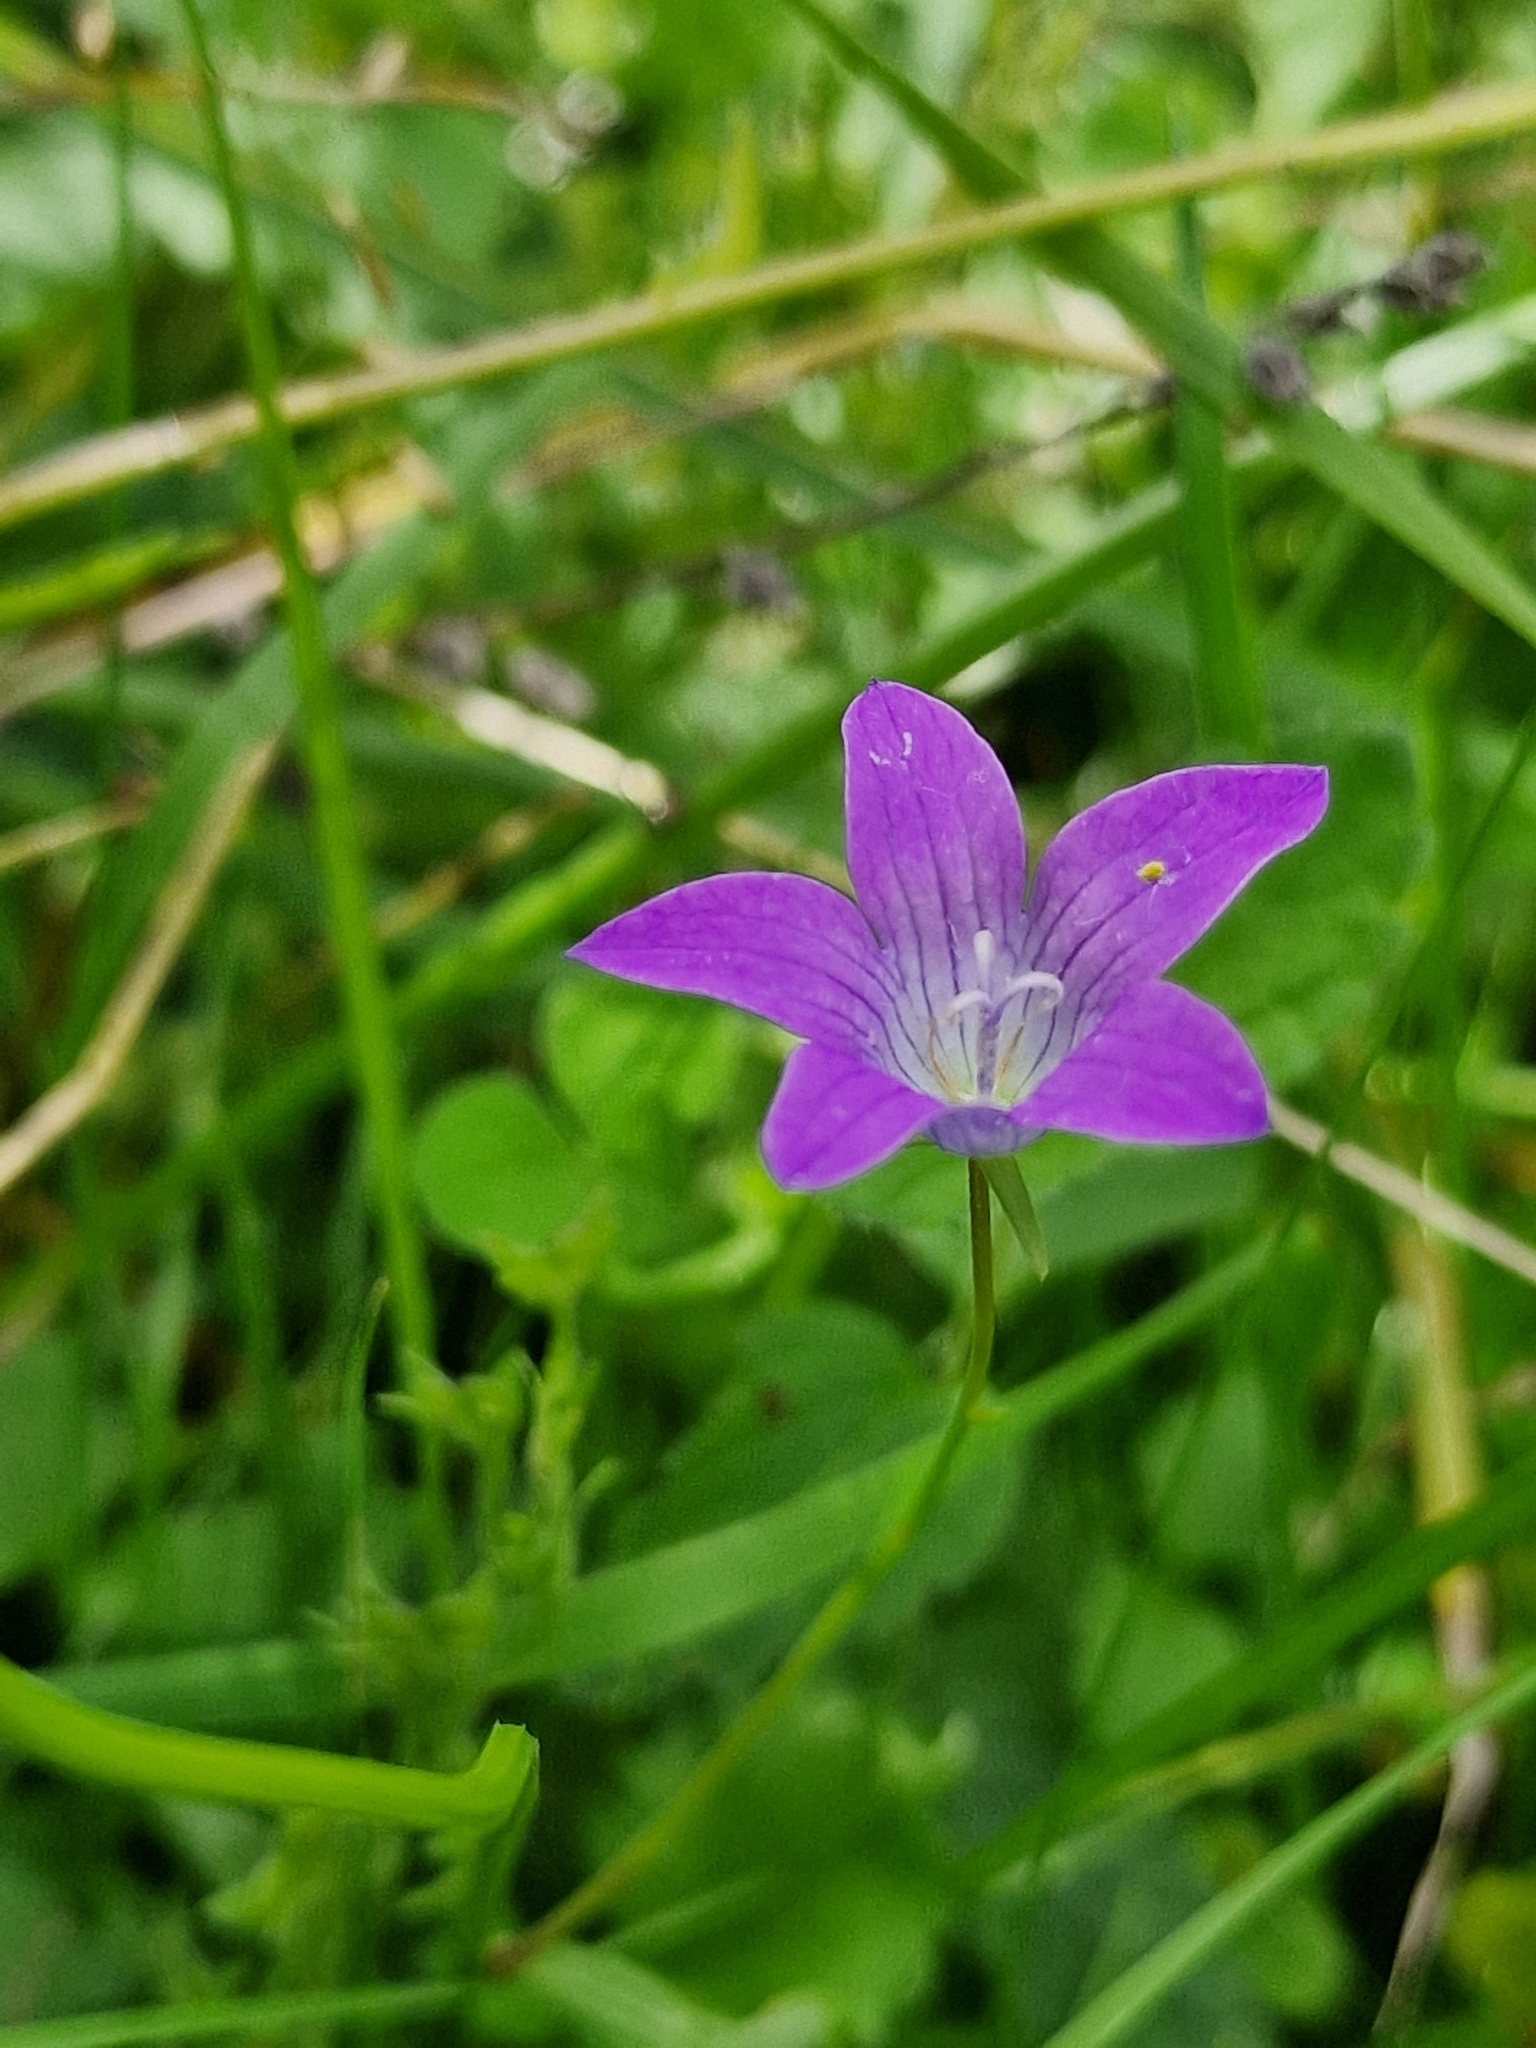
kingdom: Plantae
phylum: Tracheophyta
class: Magnoliopsida
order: Asterales
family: Campanulaceae
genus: Campanula
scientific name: Campanula patula
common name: Spreading bellflower
